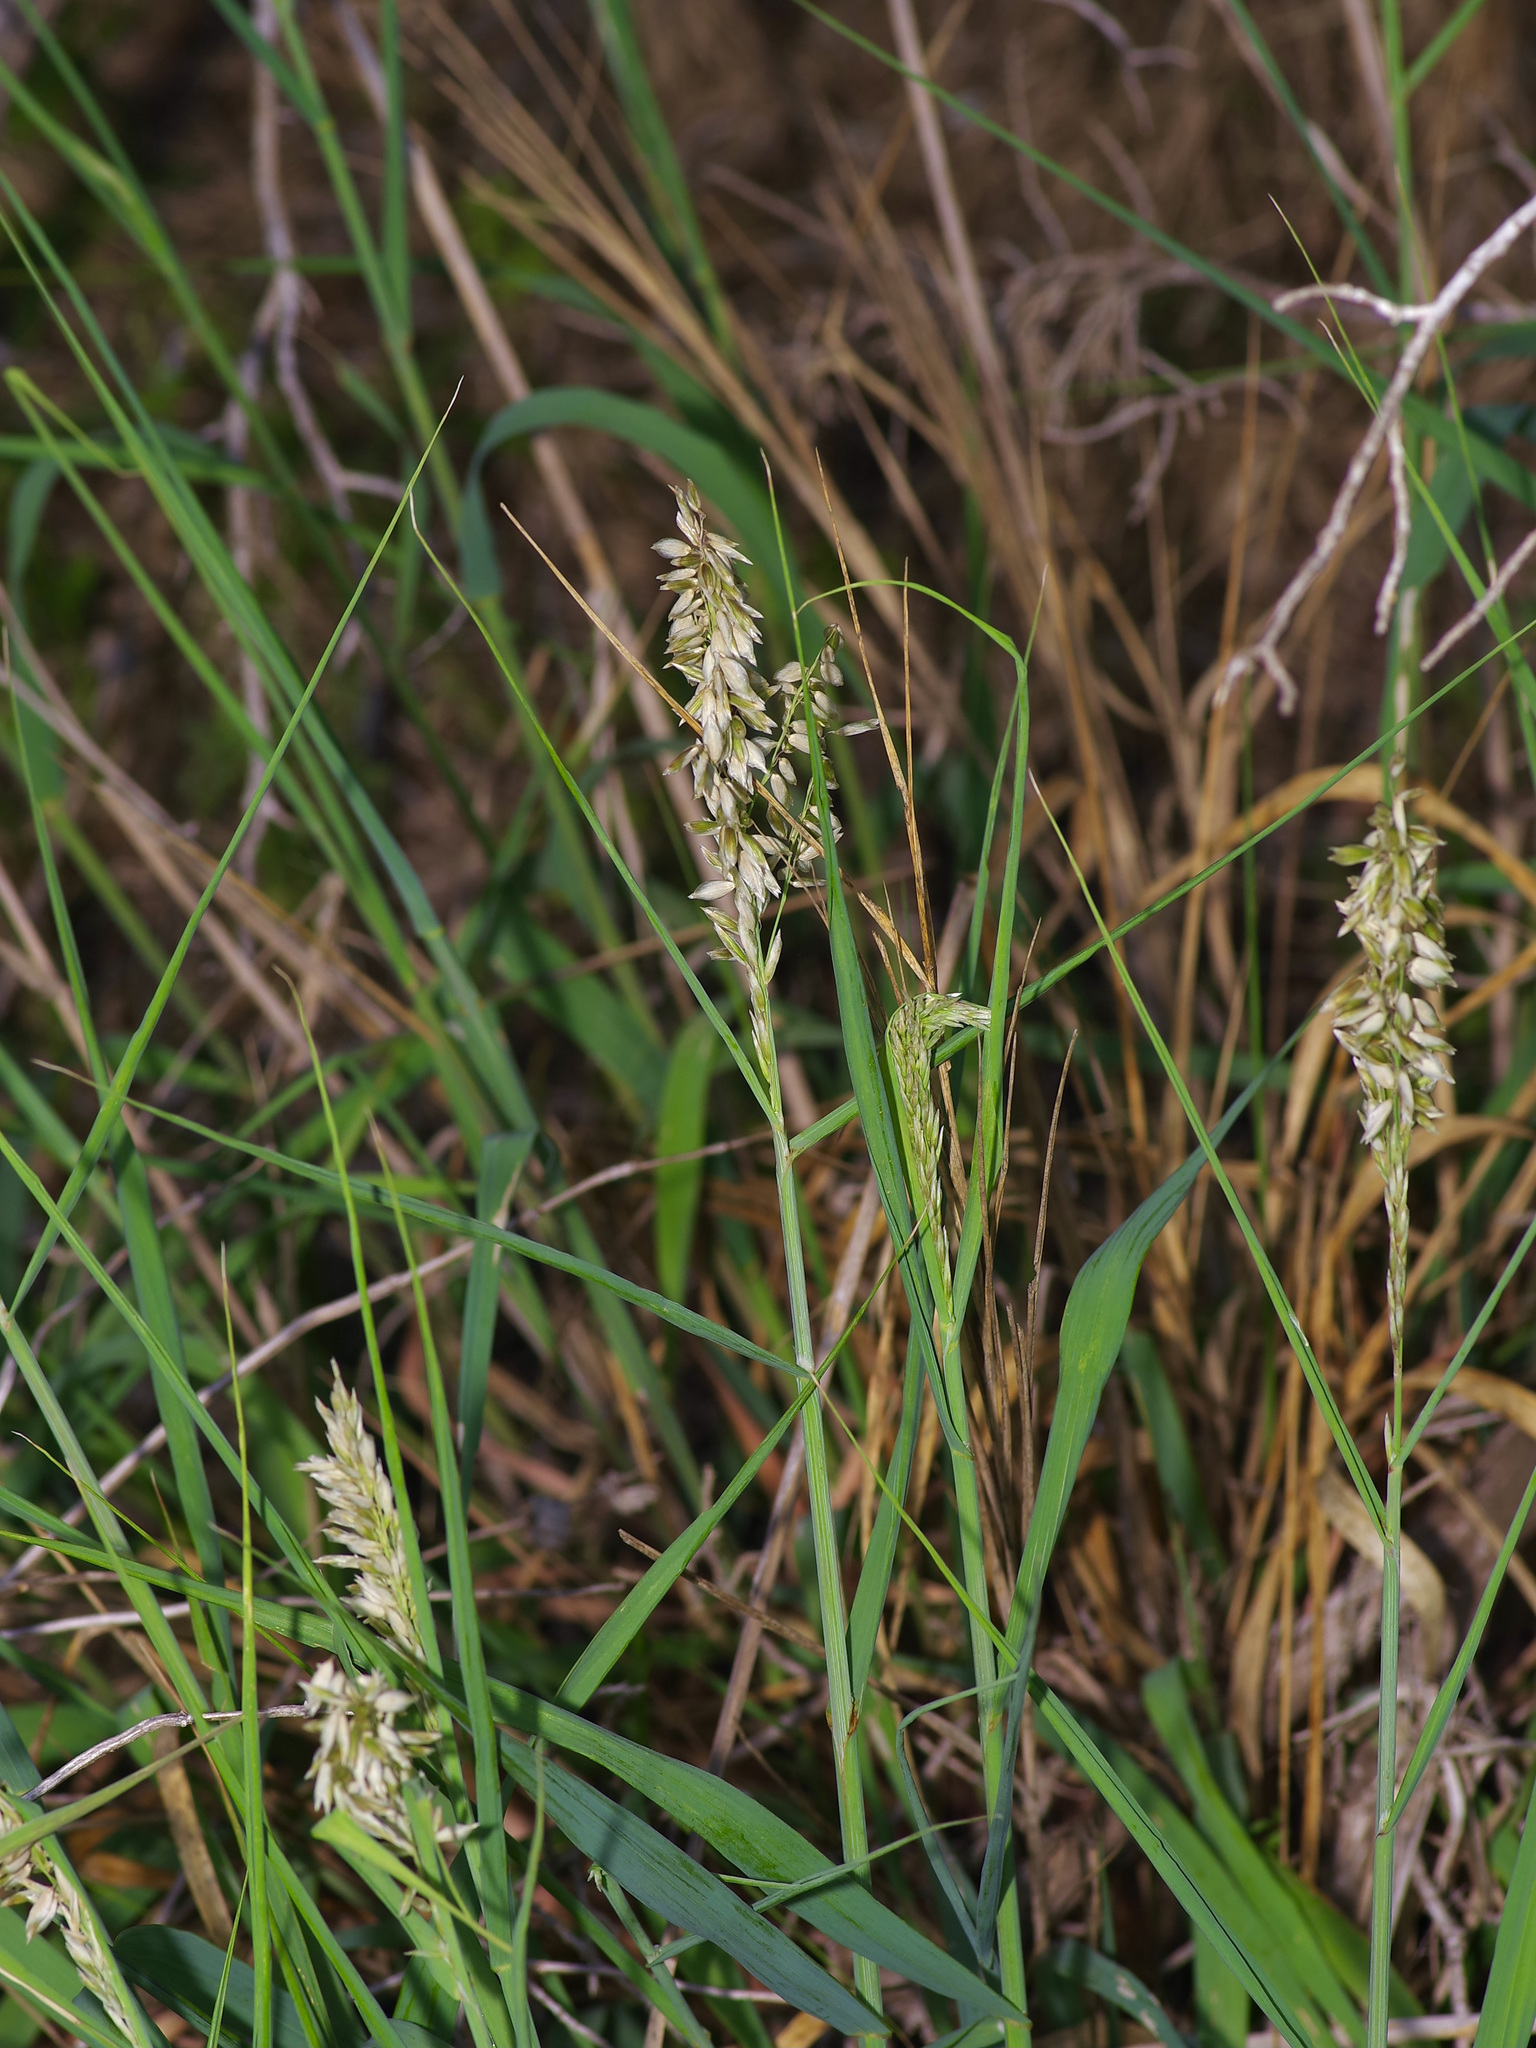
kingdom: Plantae
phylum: Tracheophyta
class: Liliopsida
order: Poales
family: Poaceae
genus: Melica
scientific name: Melica nitens
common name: Three-flower melic
